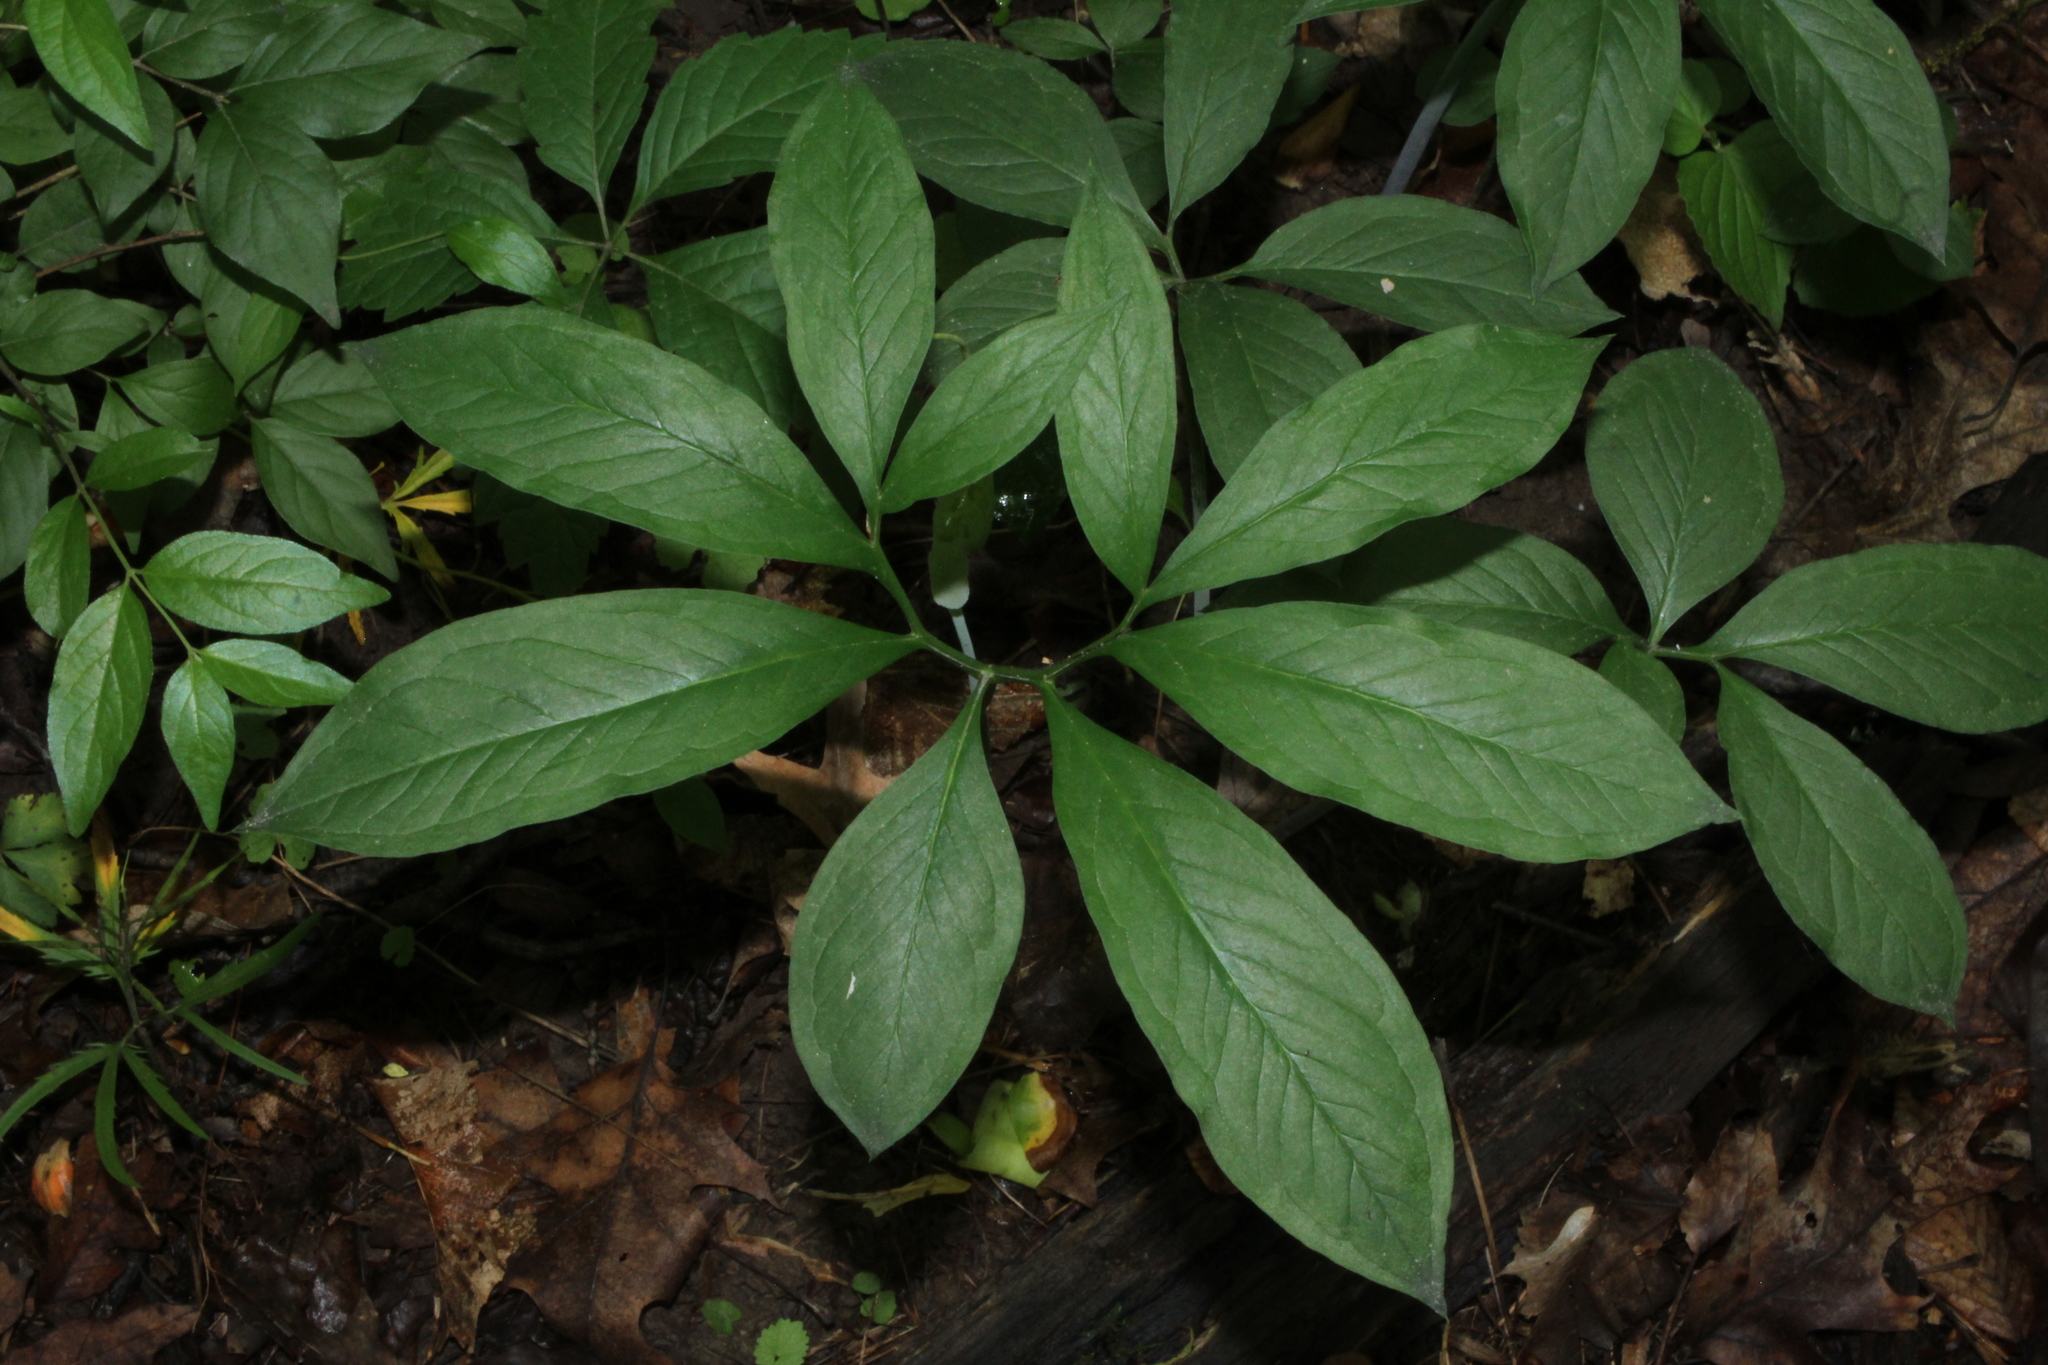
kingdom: Plantae
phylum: Tracheophyta
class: Liliopsida
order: Alismatales
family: Araceae
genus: Arisaema
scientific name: Arisaema dracontium
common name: Dragon-arum
